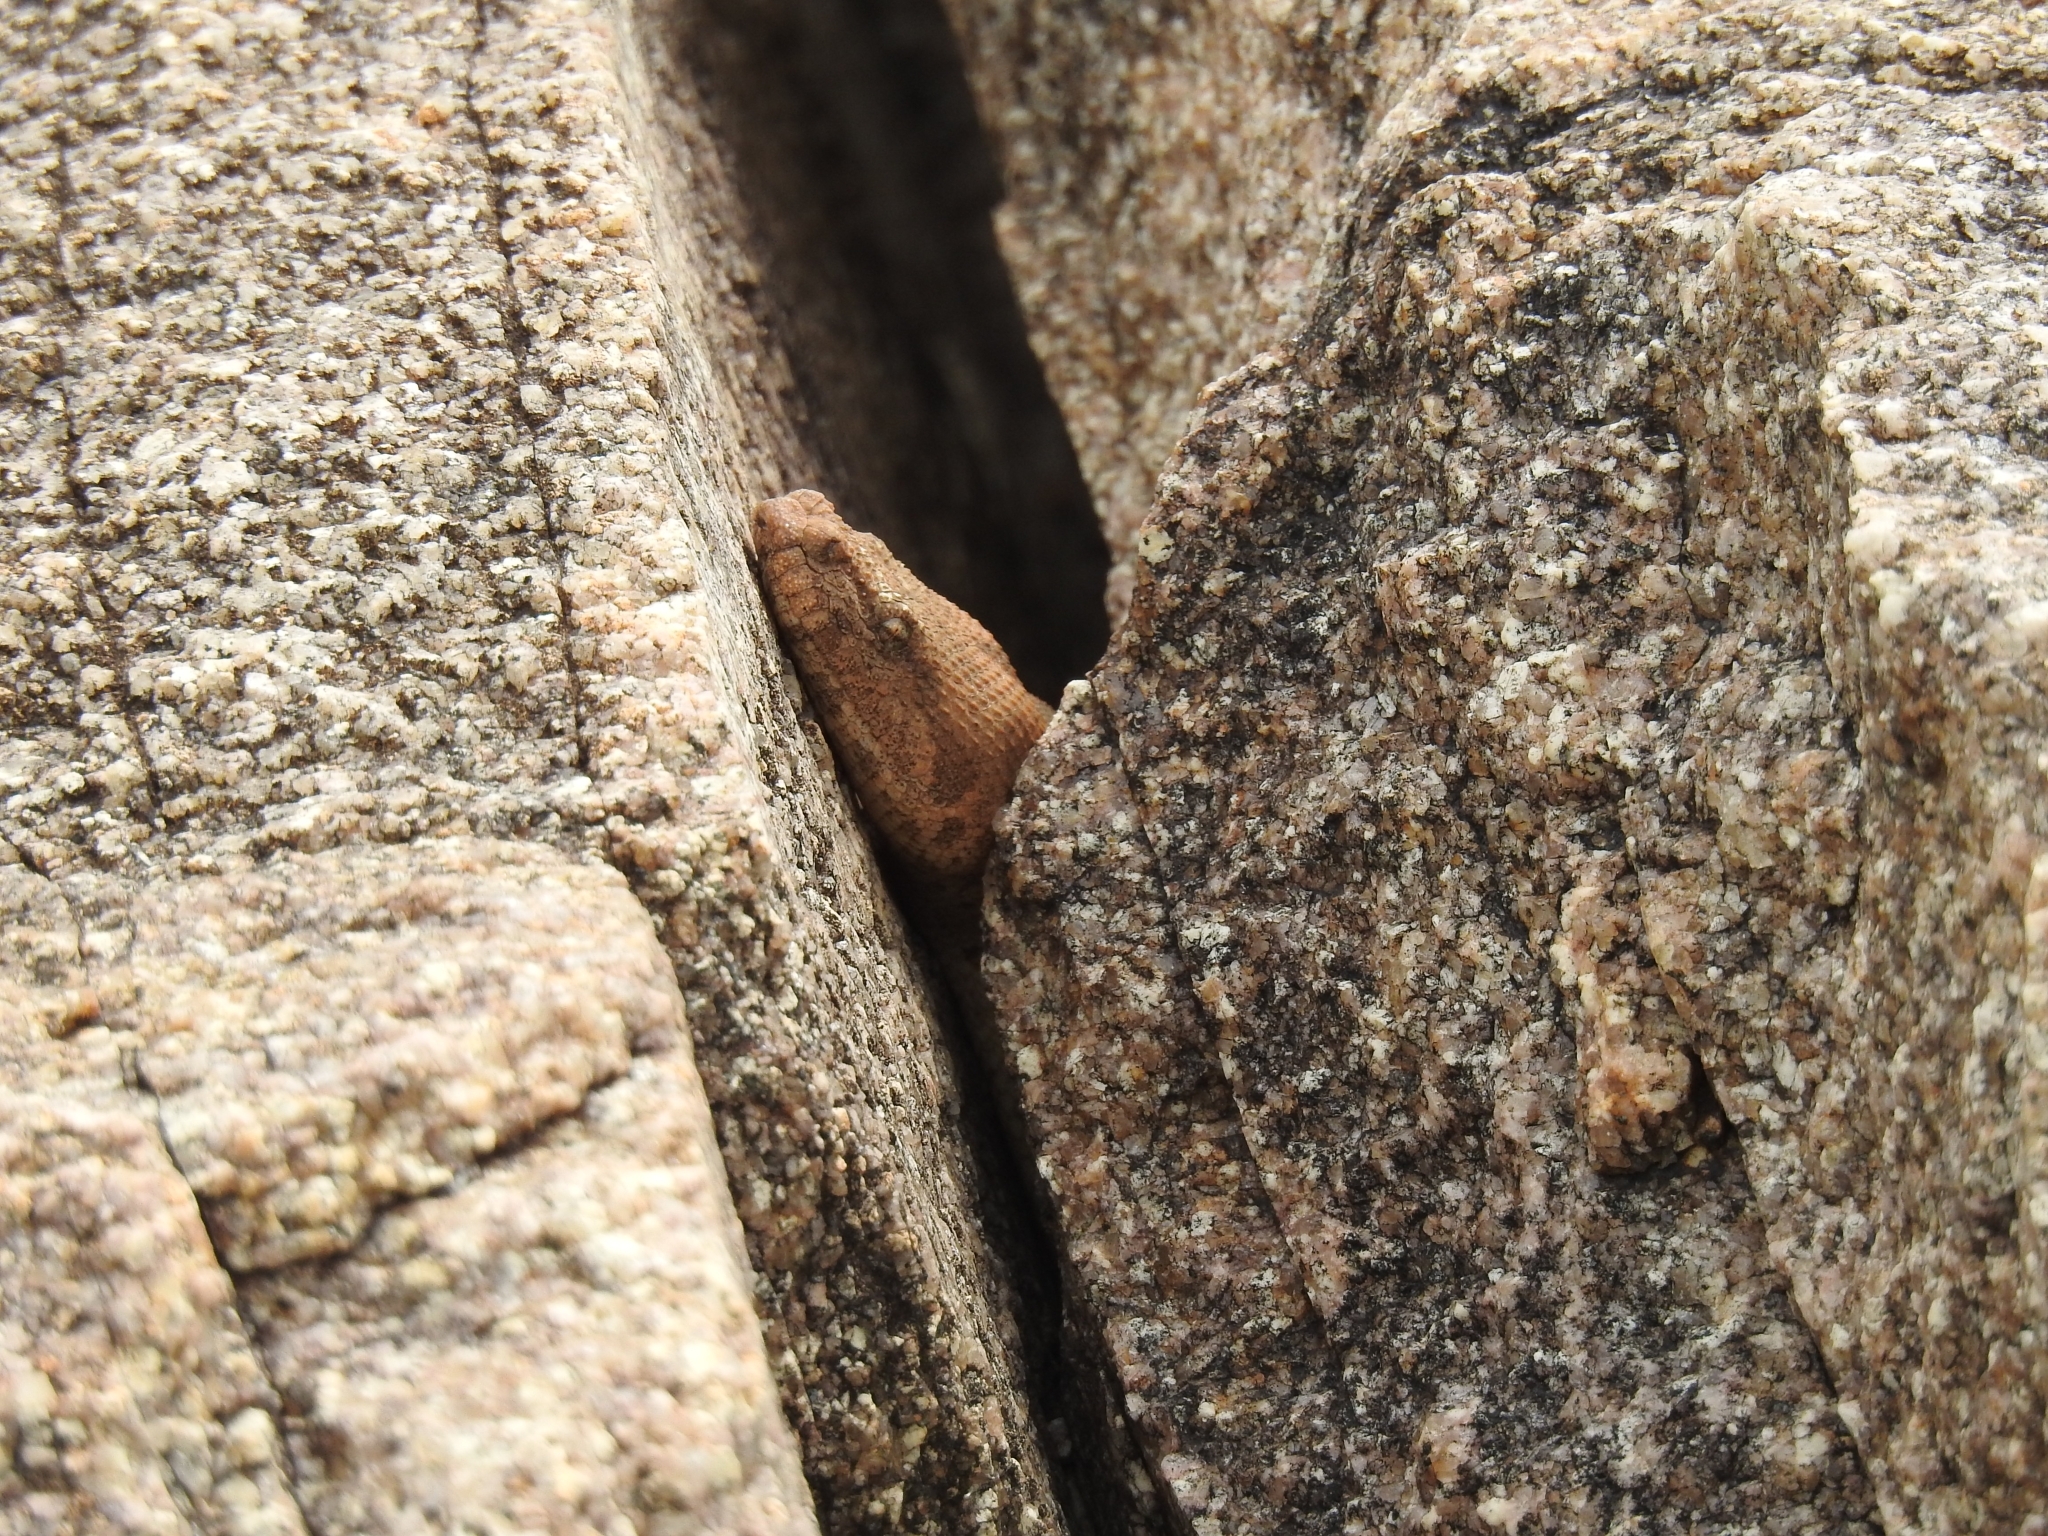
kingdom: Animalia
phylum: Chordata
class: Squamata
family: Boidae
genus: Eryx
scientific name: Eryx conicus
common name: Rough-tailed sand boa
